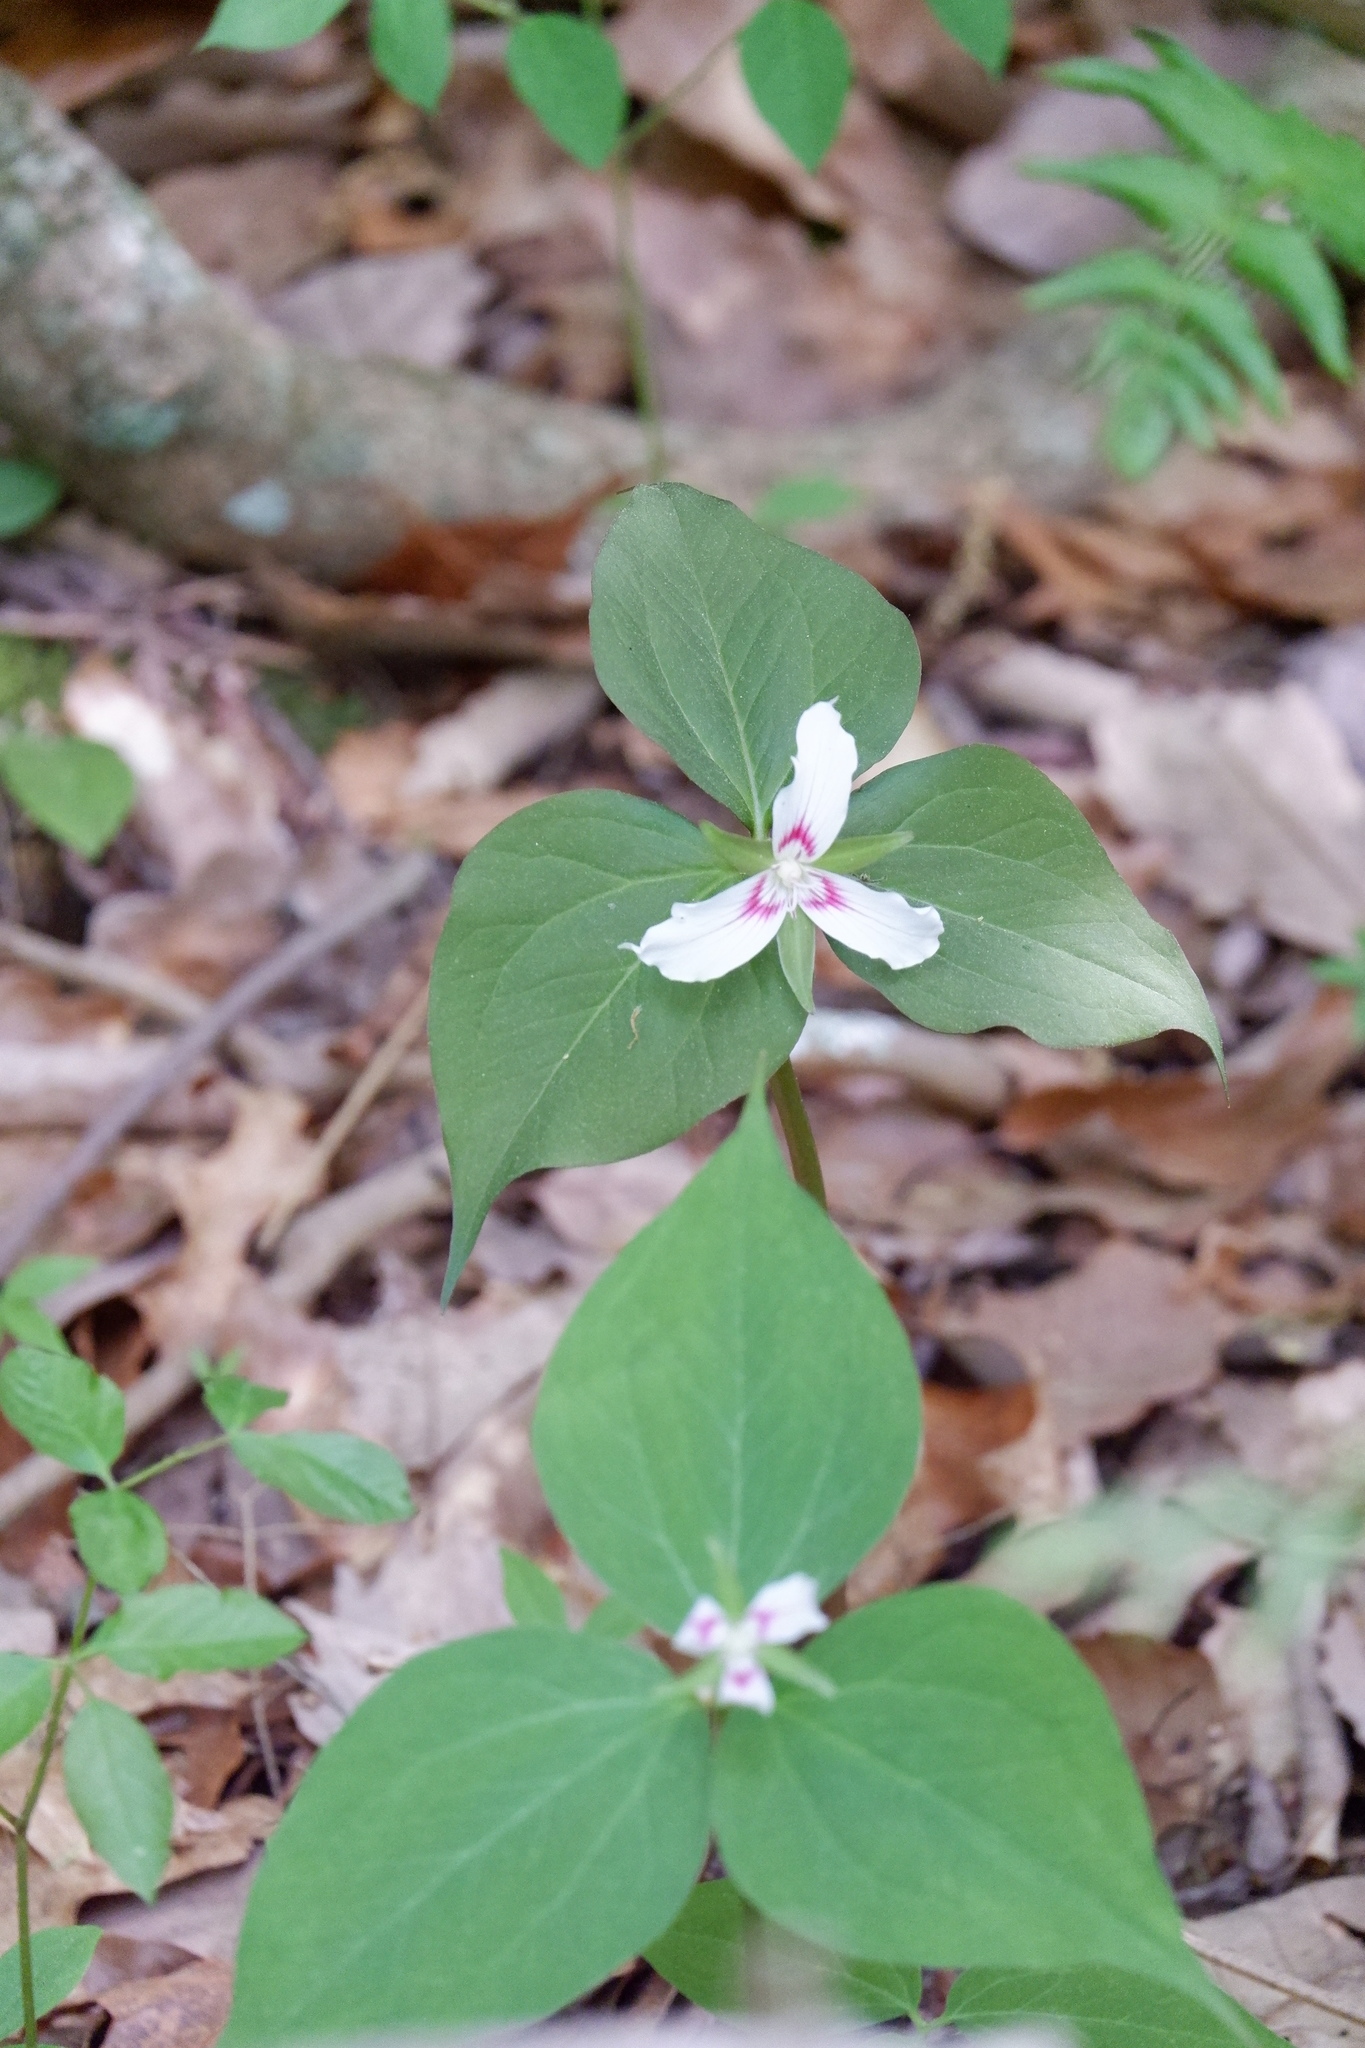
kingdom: Plantae
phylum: Tracheophyta
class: Liliopsida
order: Liliales
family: Melanthiaceae
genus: Trillium
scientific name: Trillium undulatum
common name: Paint trillium
